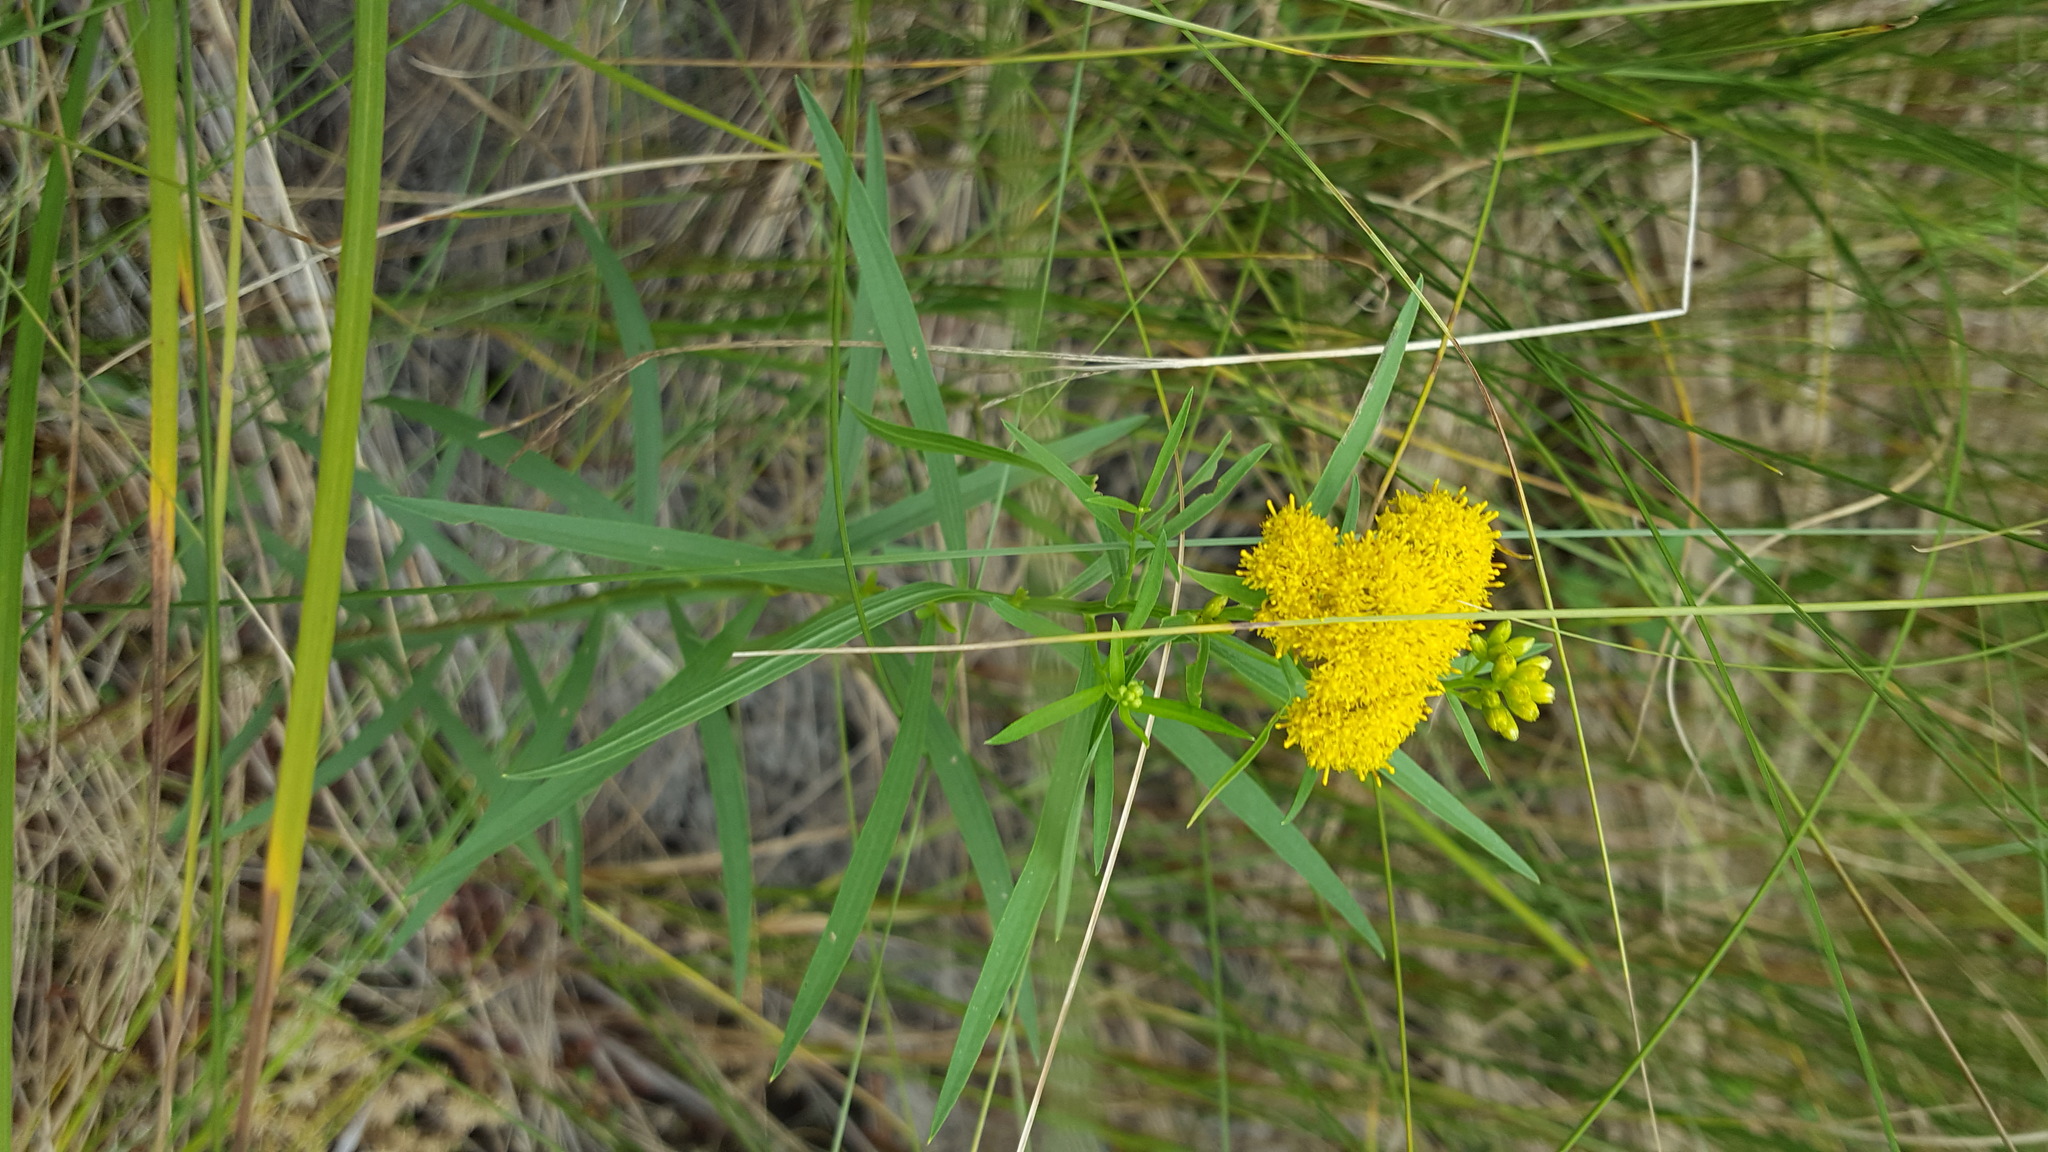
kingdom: Plantae
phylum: Tracheophyta
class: Magnoliopsida
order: Asterales
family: Asteraceae
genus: Euthamia
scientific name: Euthamia graminifolia
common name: Common goldentop
